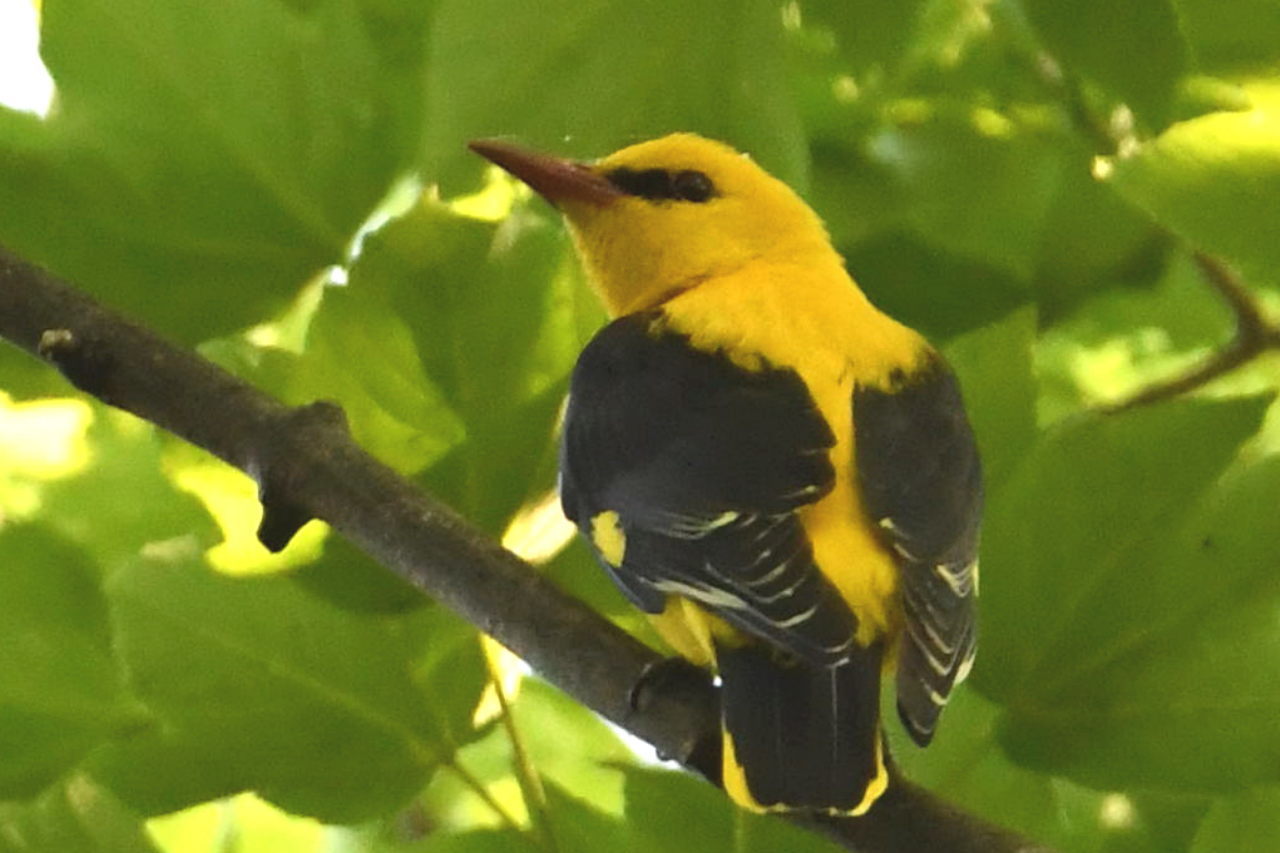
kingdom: Animalia
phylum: Chordata
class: Aves
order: Passeriformes
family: Oriolidae
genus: Oriolus
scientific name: Oriolus oriolus
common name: Eurasian golden oriole
